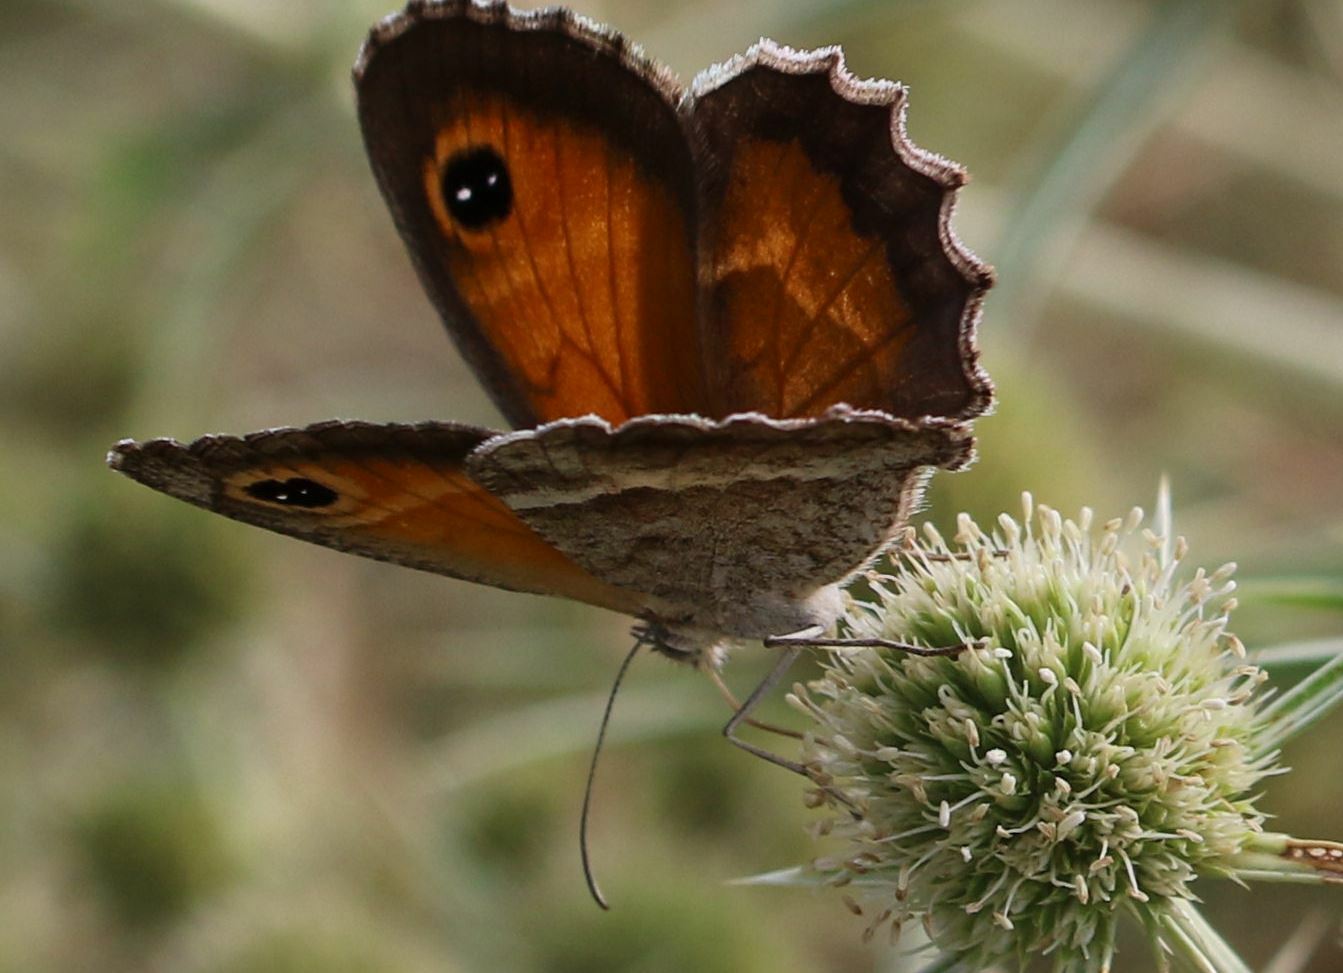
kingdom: Animalia
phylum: Arthropoda
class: Insecta
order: Lepidoptera
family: Nymphalidae
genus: Pyronia
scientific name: Pyronia cecilia
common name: Southern gatekeeper
